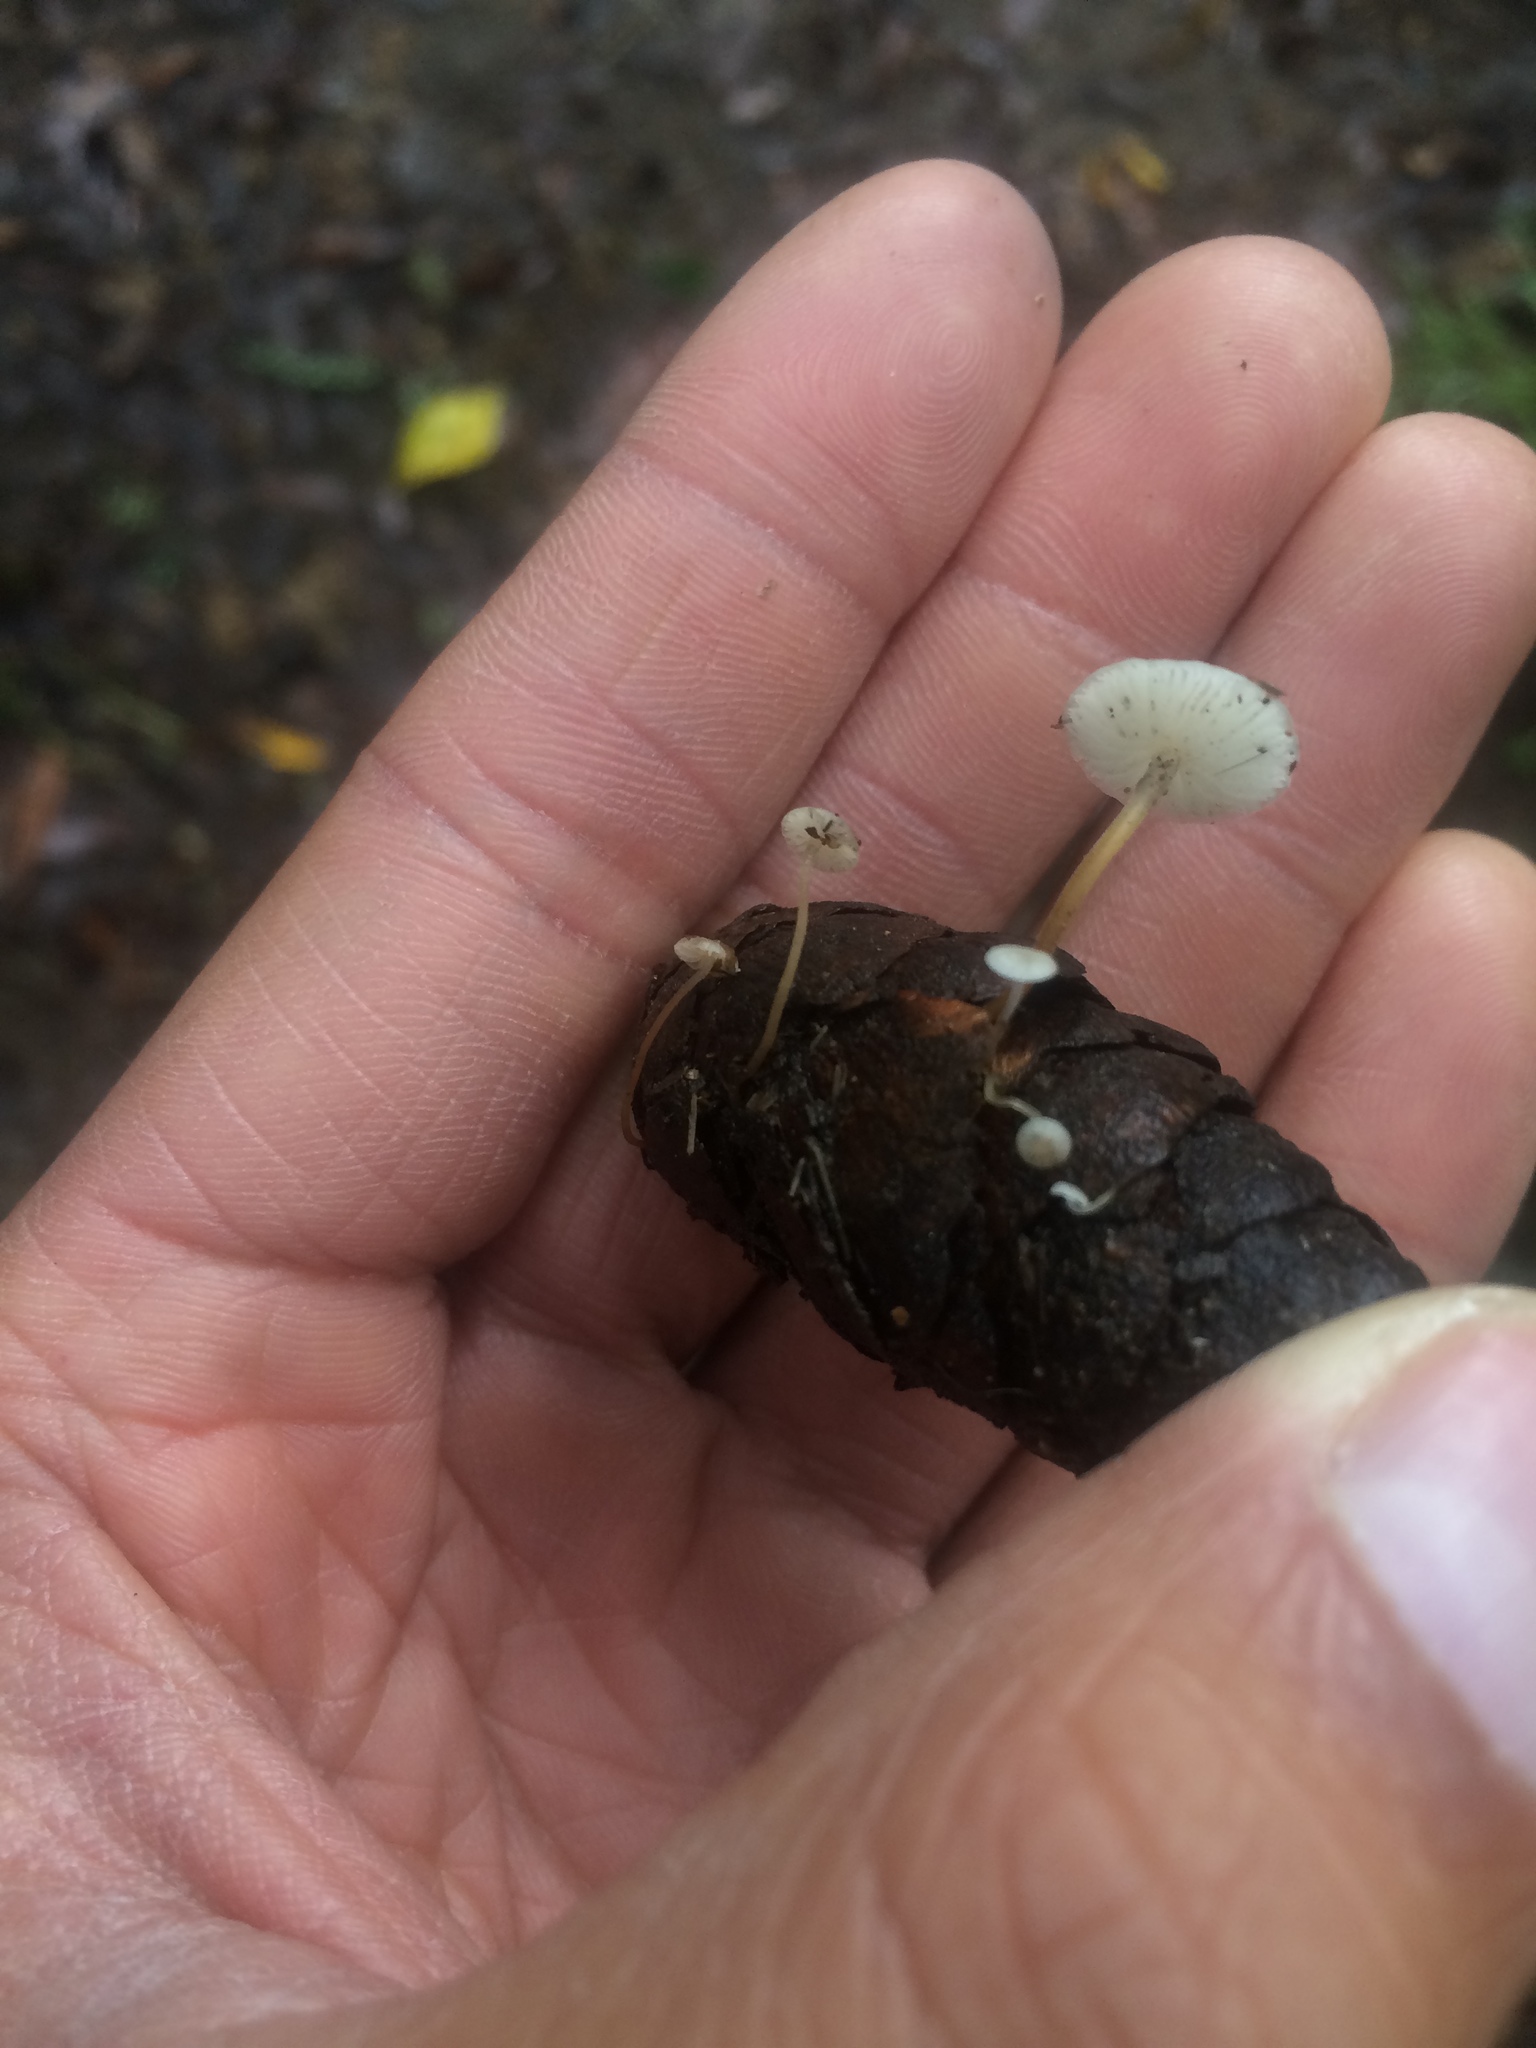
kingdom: Fungi
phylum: Basidiomycota
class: Agaricomycetes
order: Agaricales
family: Physalacriaceae
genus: Strobilurus
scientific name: Strobilurus trullisatus
